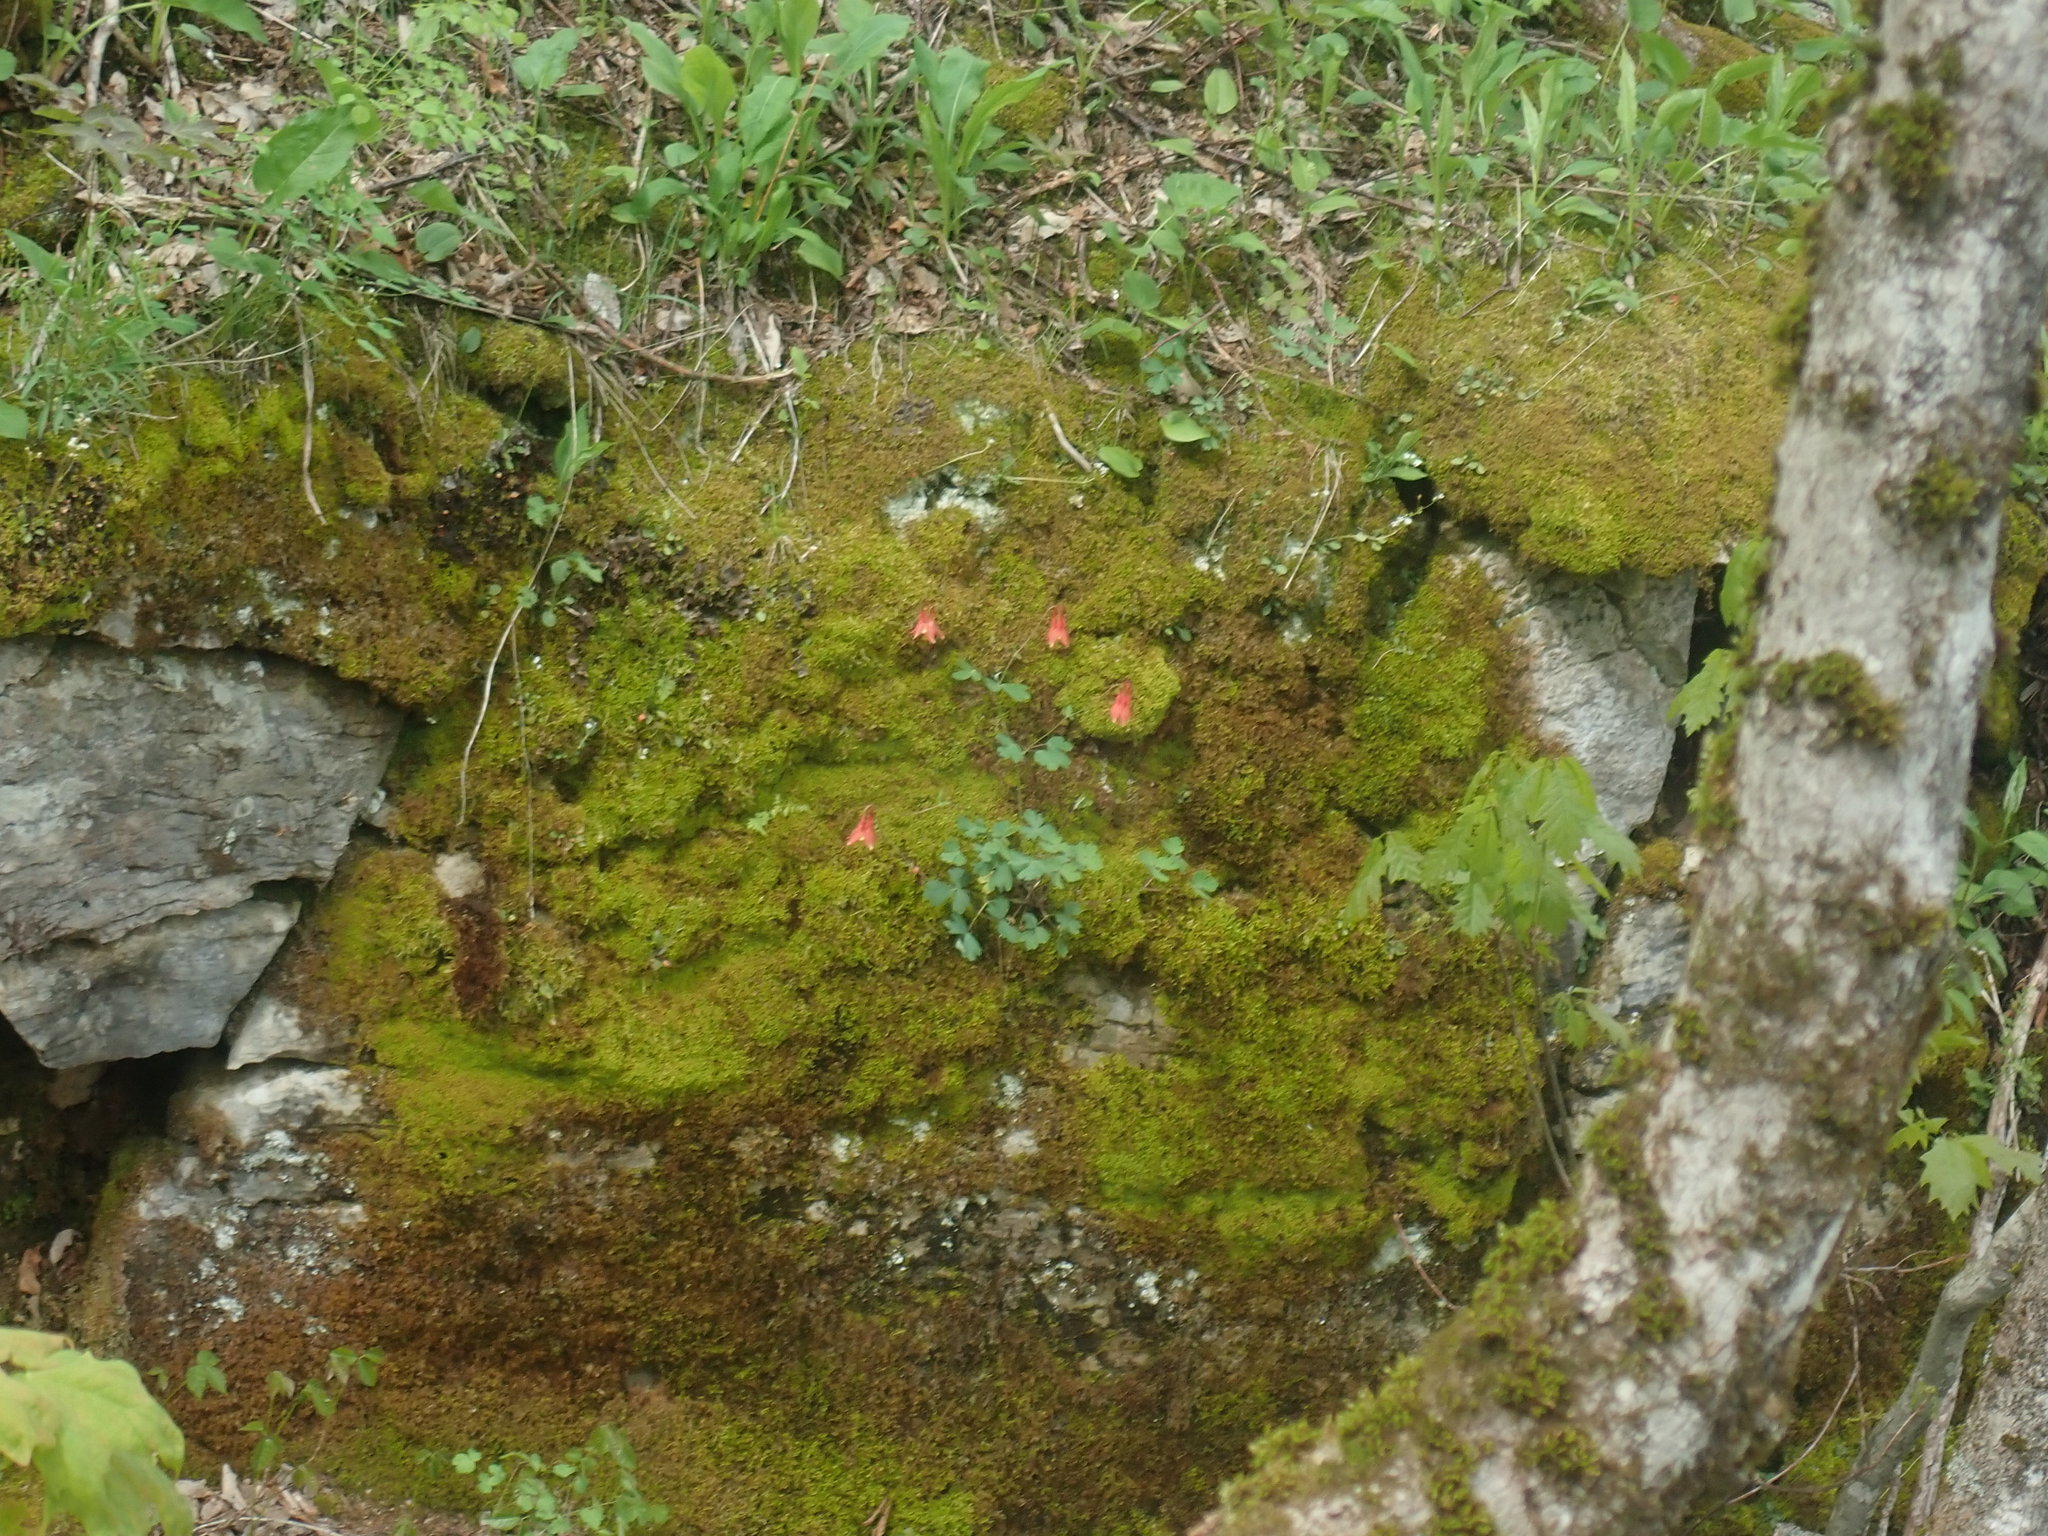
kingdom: Plantae
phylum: Tracheophyta
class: Magnoliopsida
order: Ranunculales
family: Ranunculaceae
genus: Aquilegia
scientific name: Aquilegia canadensis
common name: American columbine
